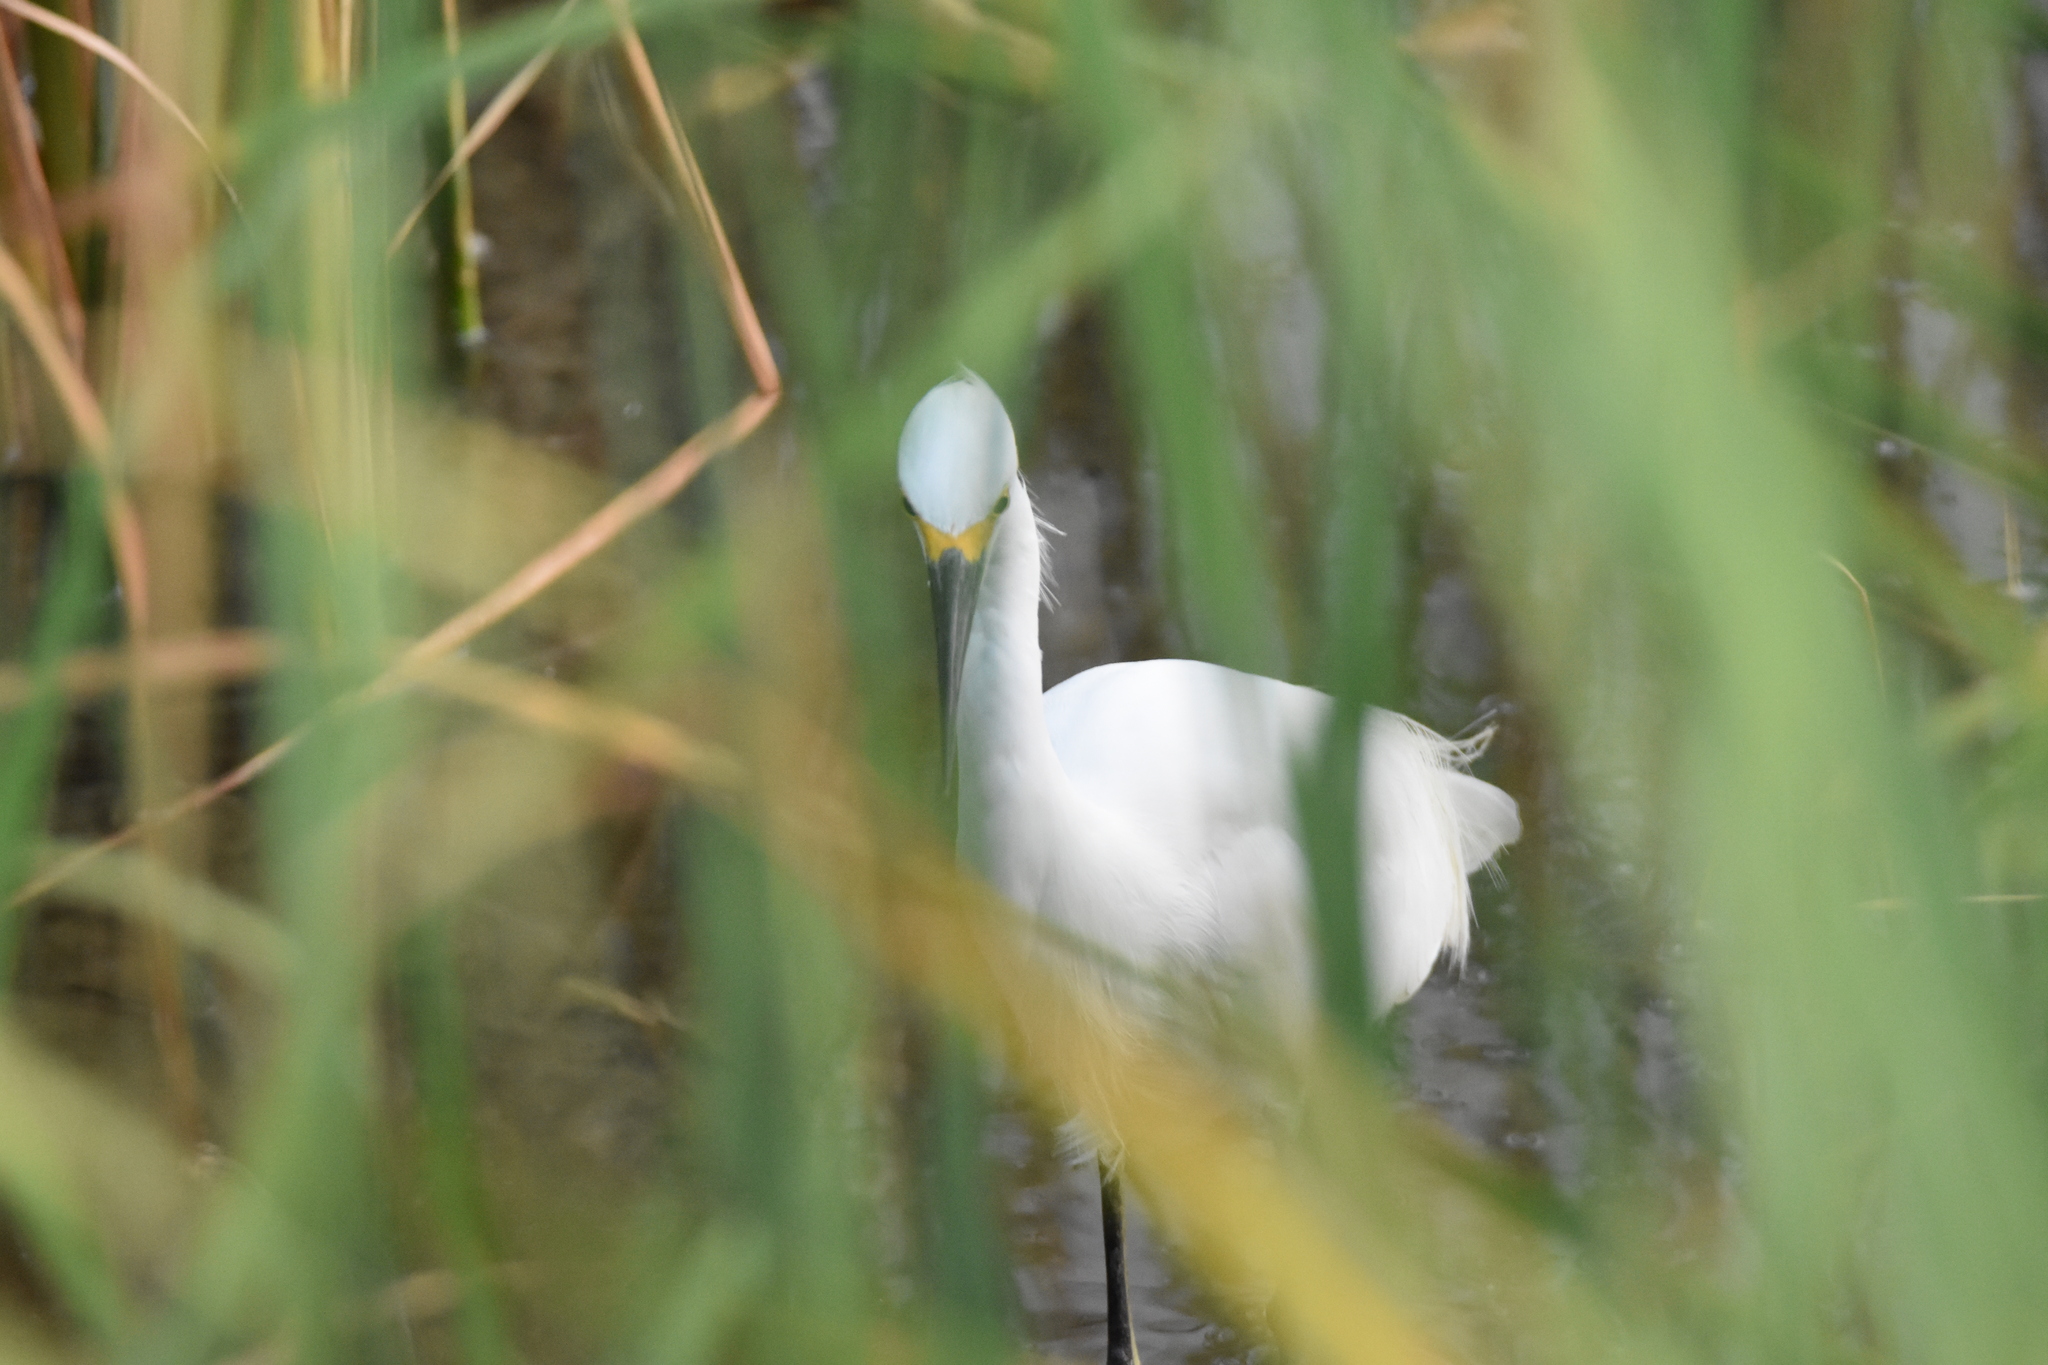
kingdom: Animalia
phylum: Chordata
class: Aves
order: Pelecaniformes
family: Ardeidae
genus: Egretta
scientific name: Egretta thula
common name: Snowy egret
